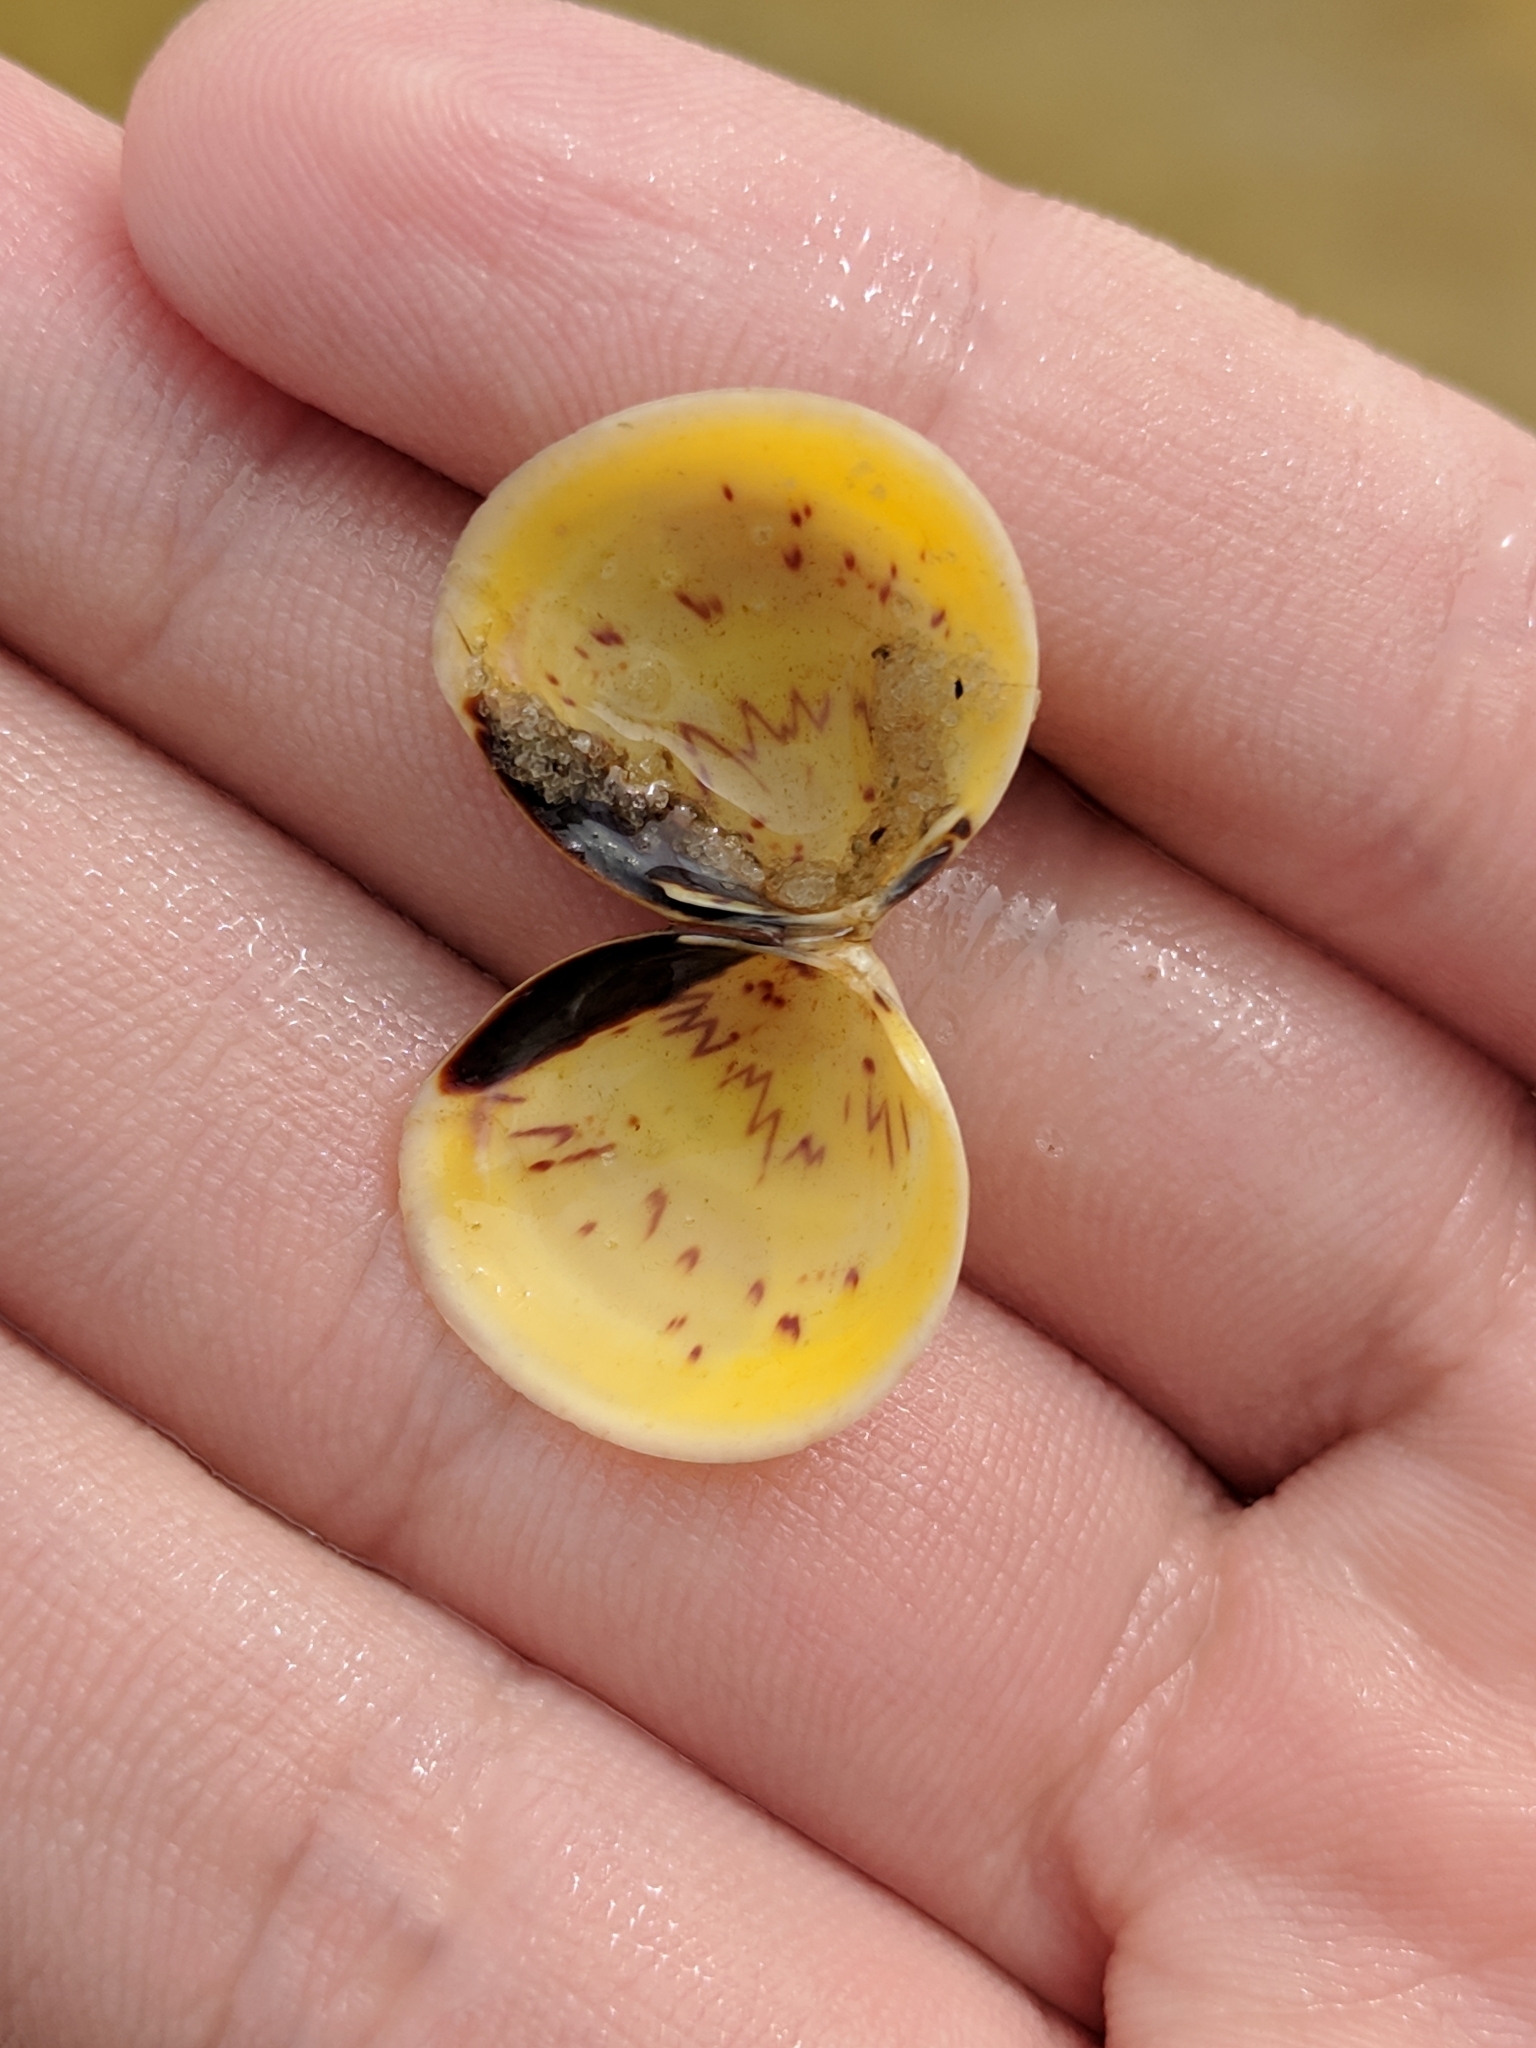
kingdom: Animalia
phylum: Mollusca
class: Bivalvia
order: Cardiida
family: Cardiidae
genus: Laevicardium
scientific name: Laevicardium mortoni
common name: Morton eggcockle
